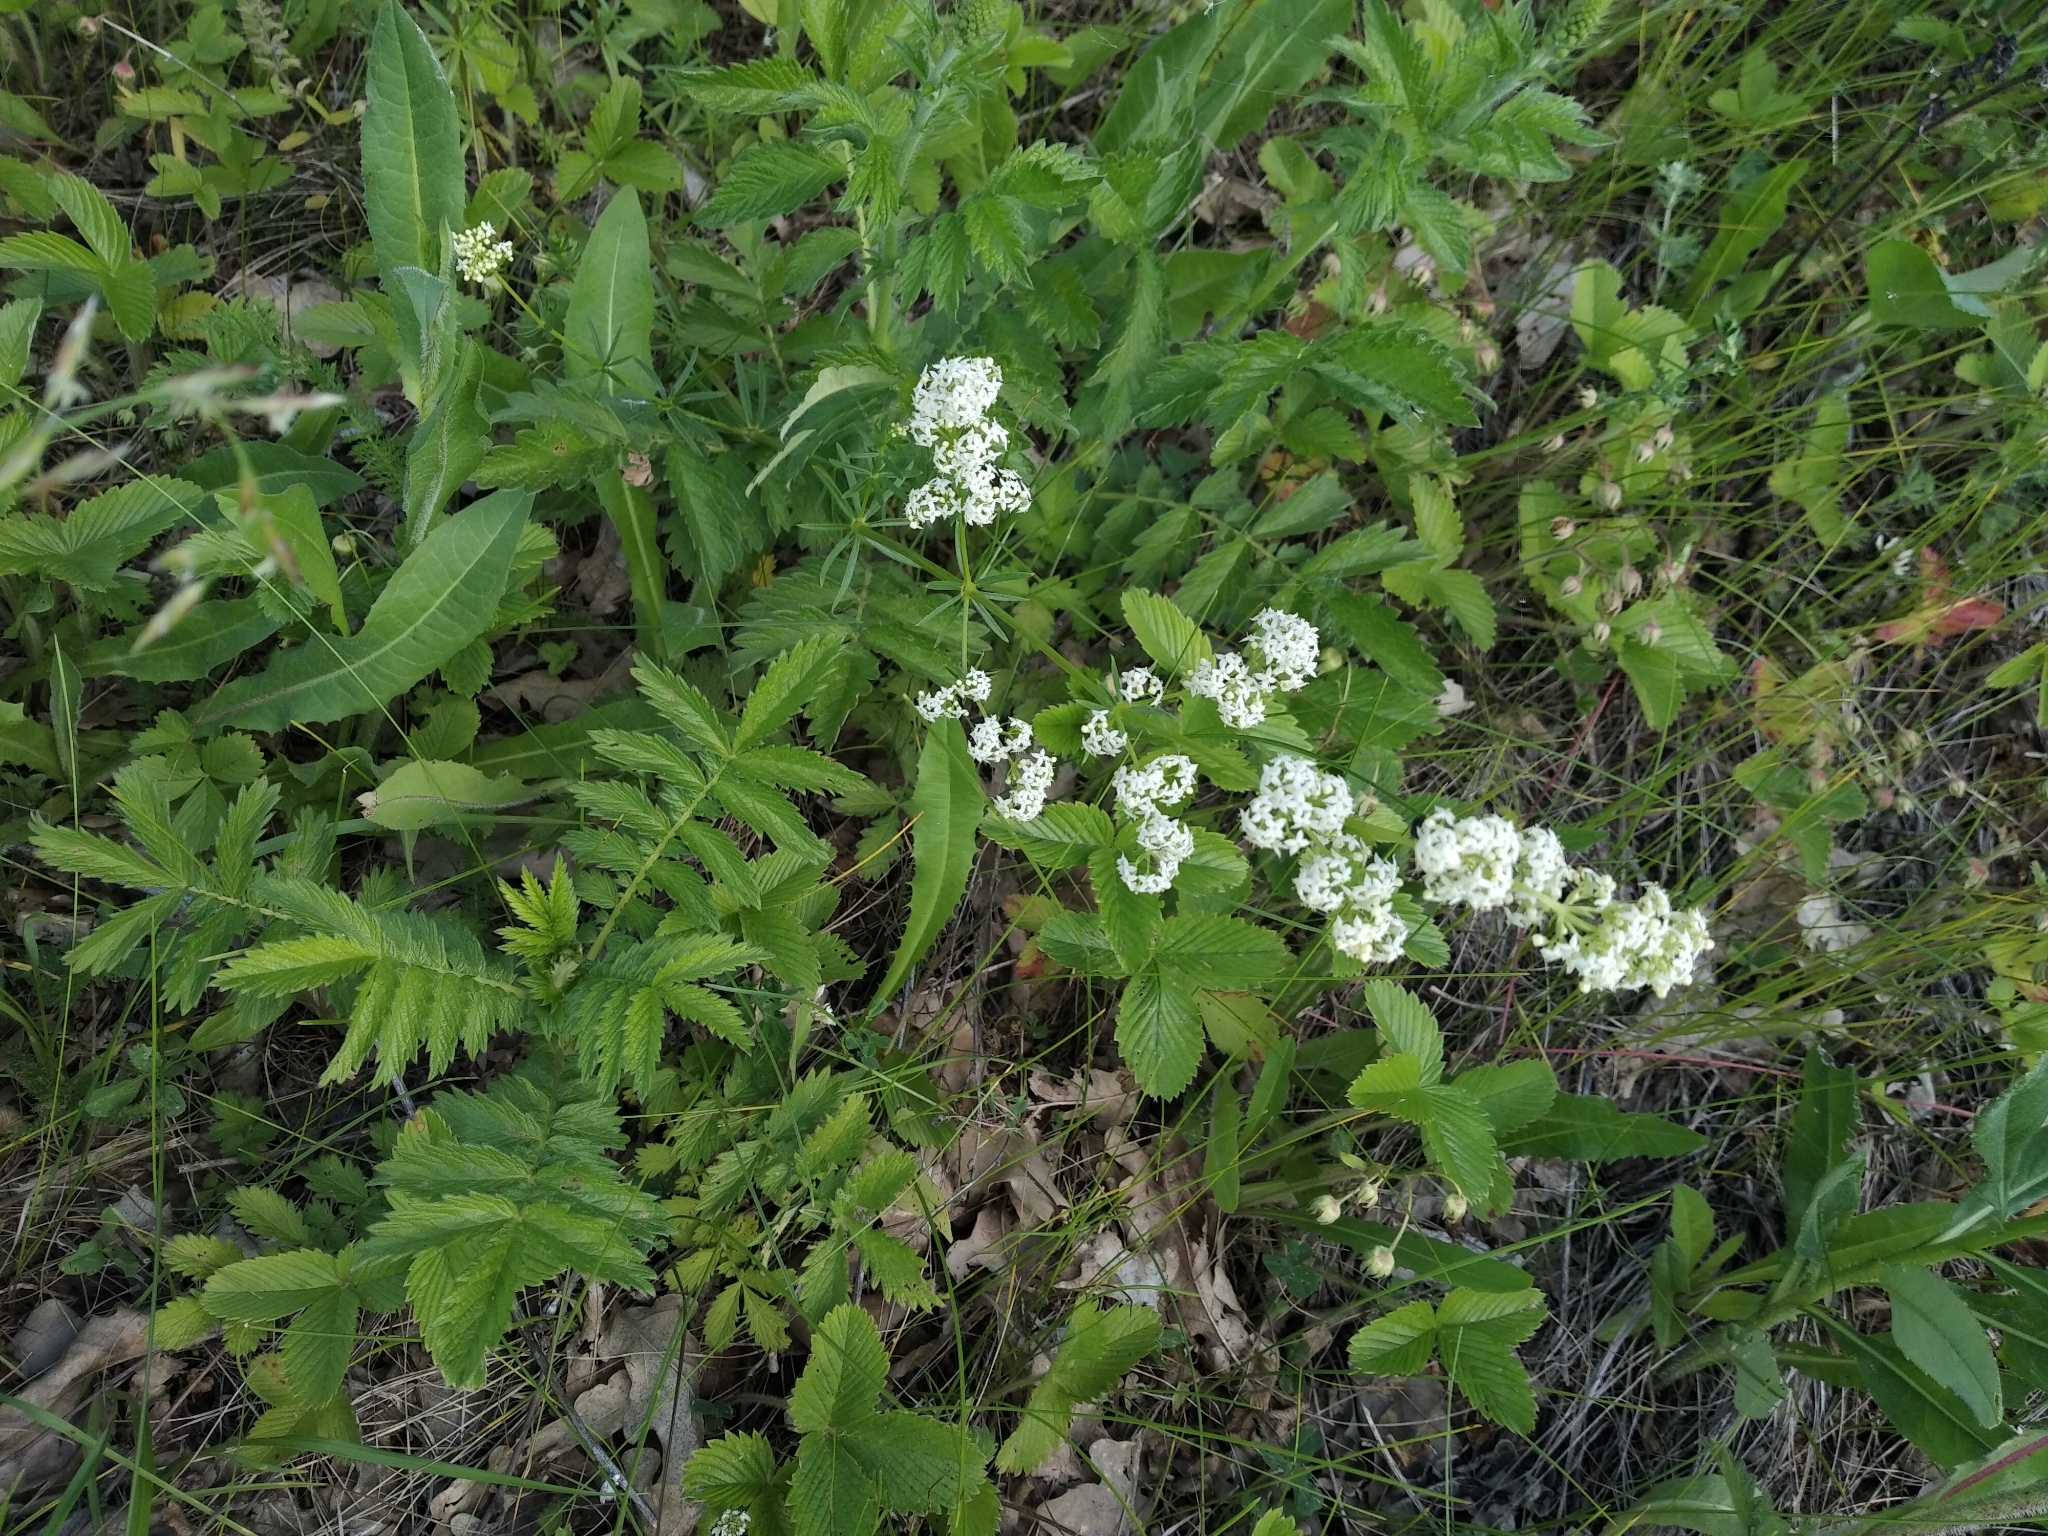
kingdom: Plantae
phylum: Tracheophyta
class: Magnoliopsida
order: Gentianales
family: Rubiaceae
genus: Galium
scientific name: Galium mollugo
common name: Hedge bedstraw
